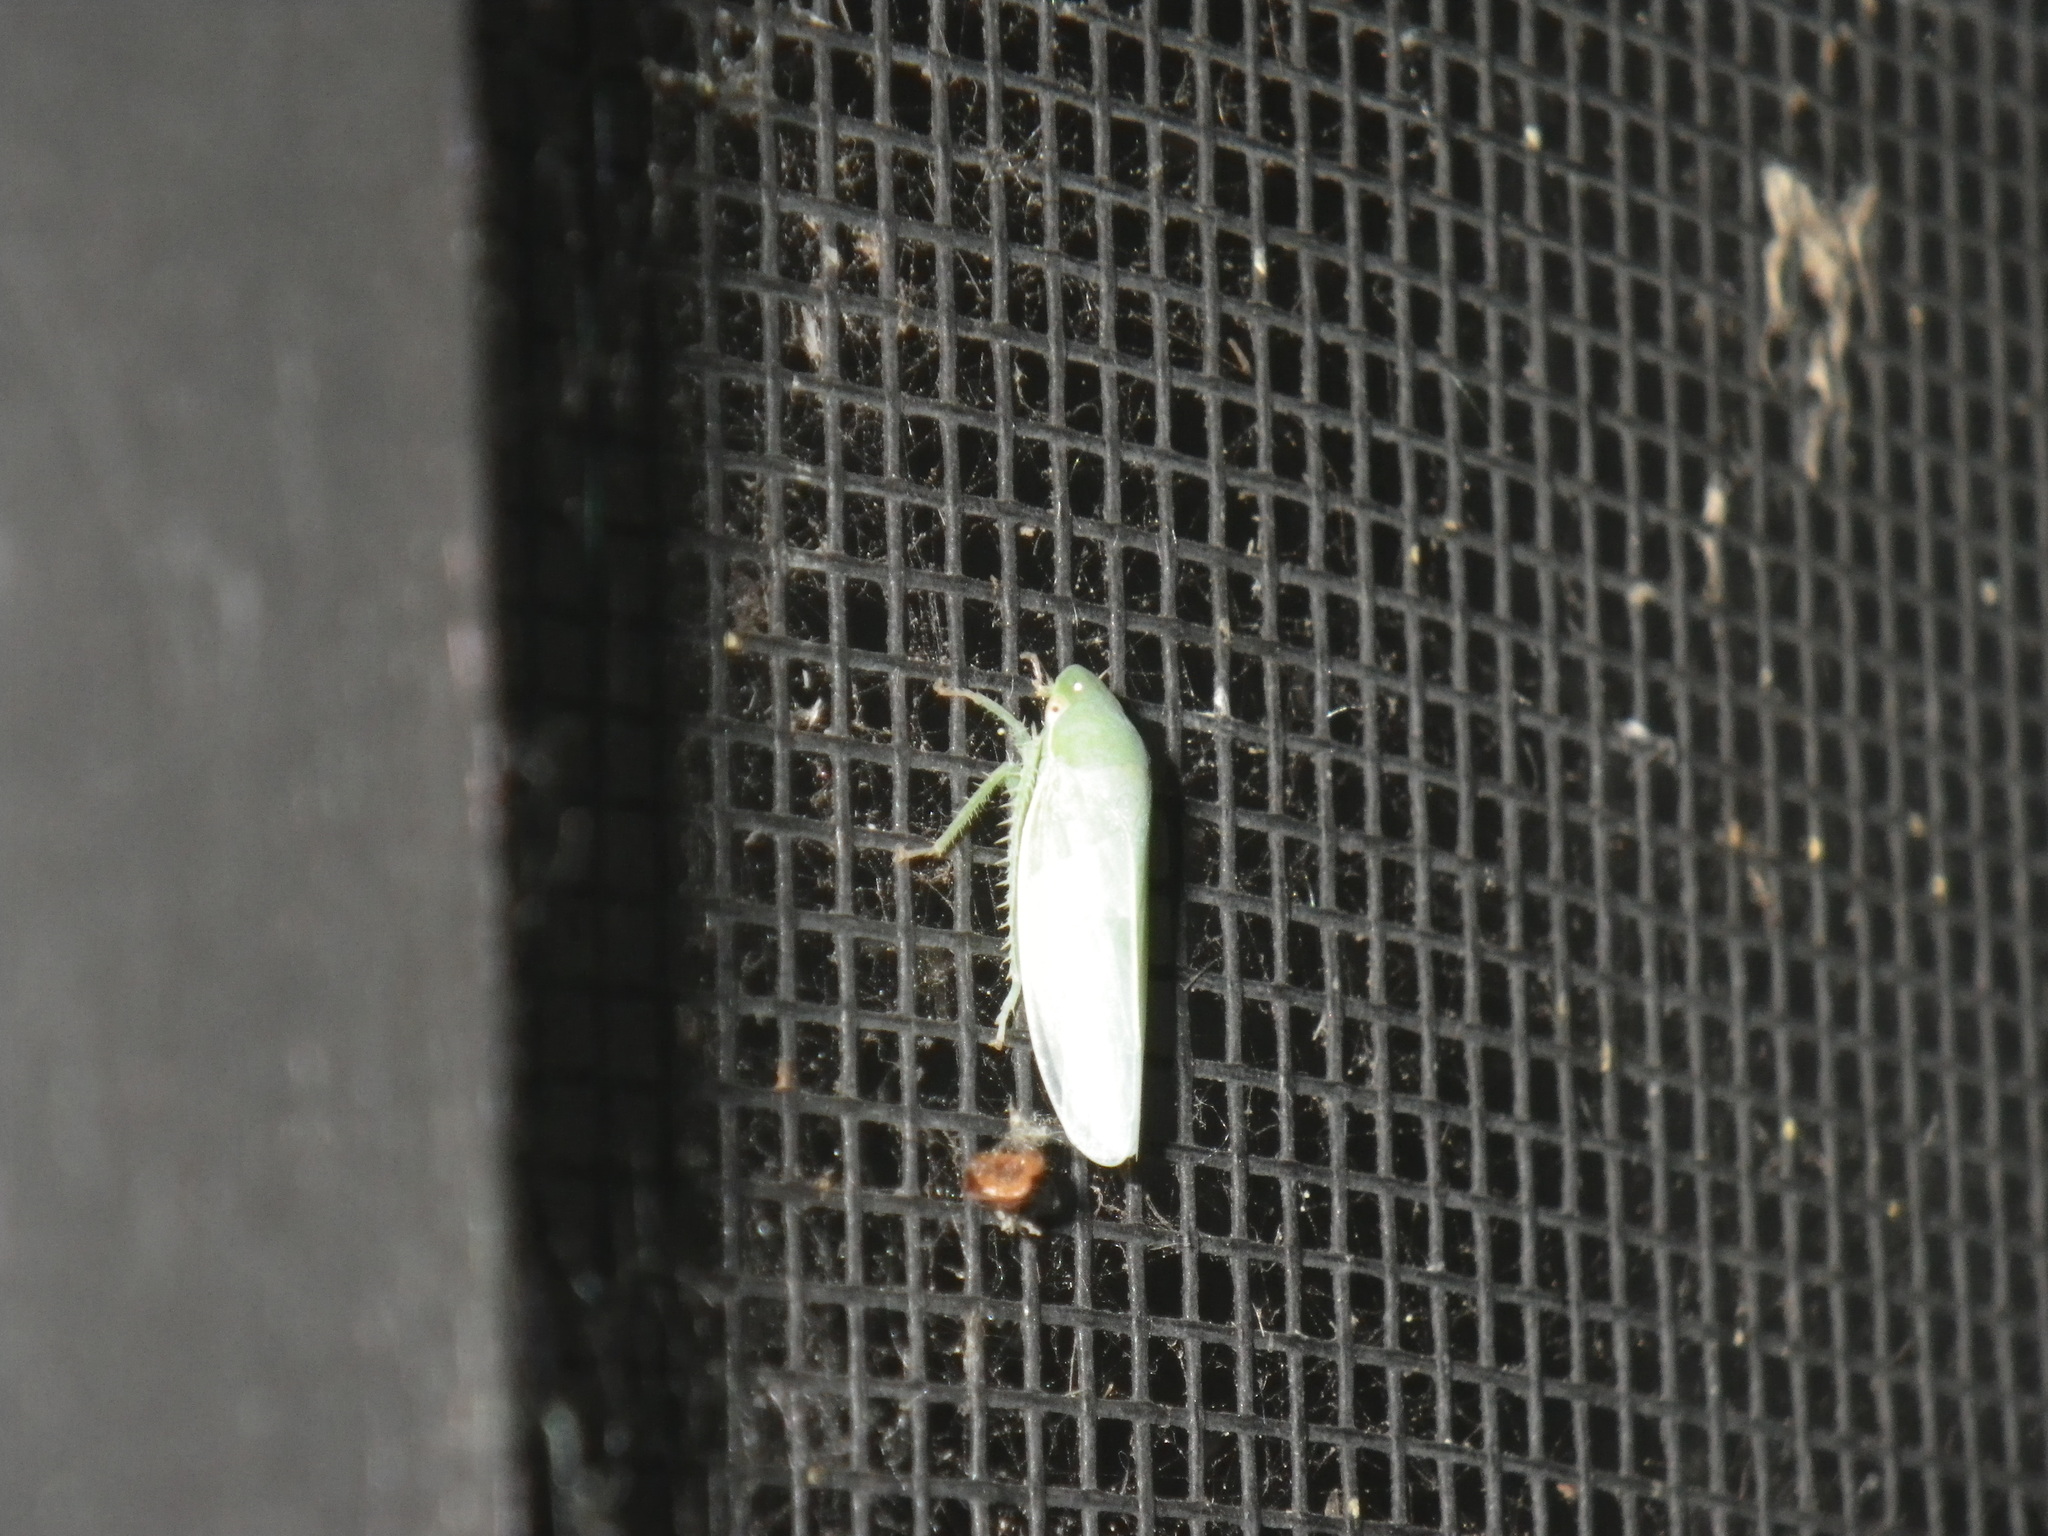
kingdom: Animalia
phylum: Arthropoda
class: Insecta
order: Hemiptera
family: Cicadellidae
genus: Gyponana
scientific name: Gyponana
